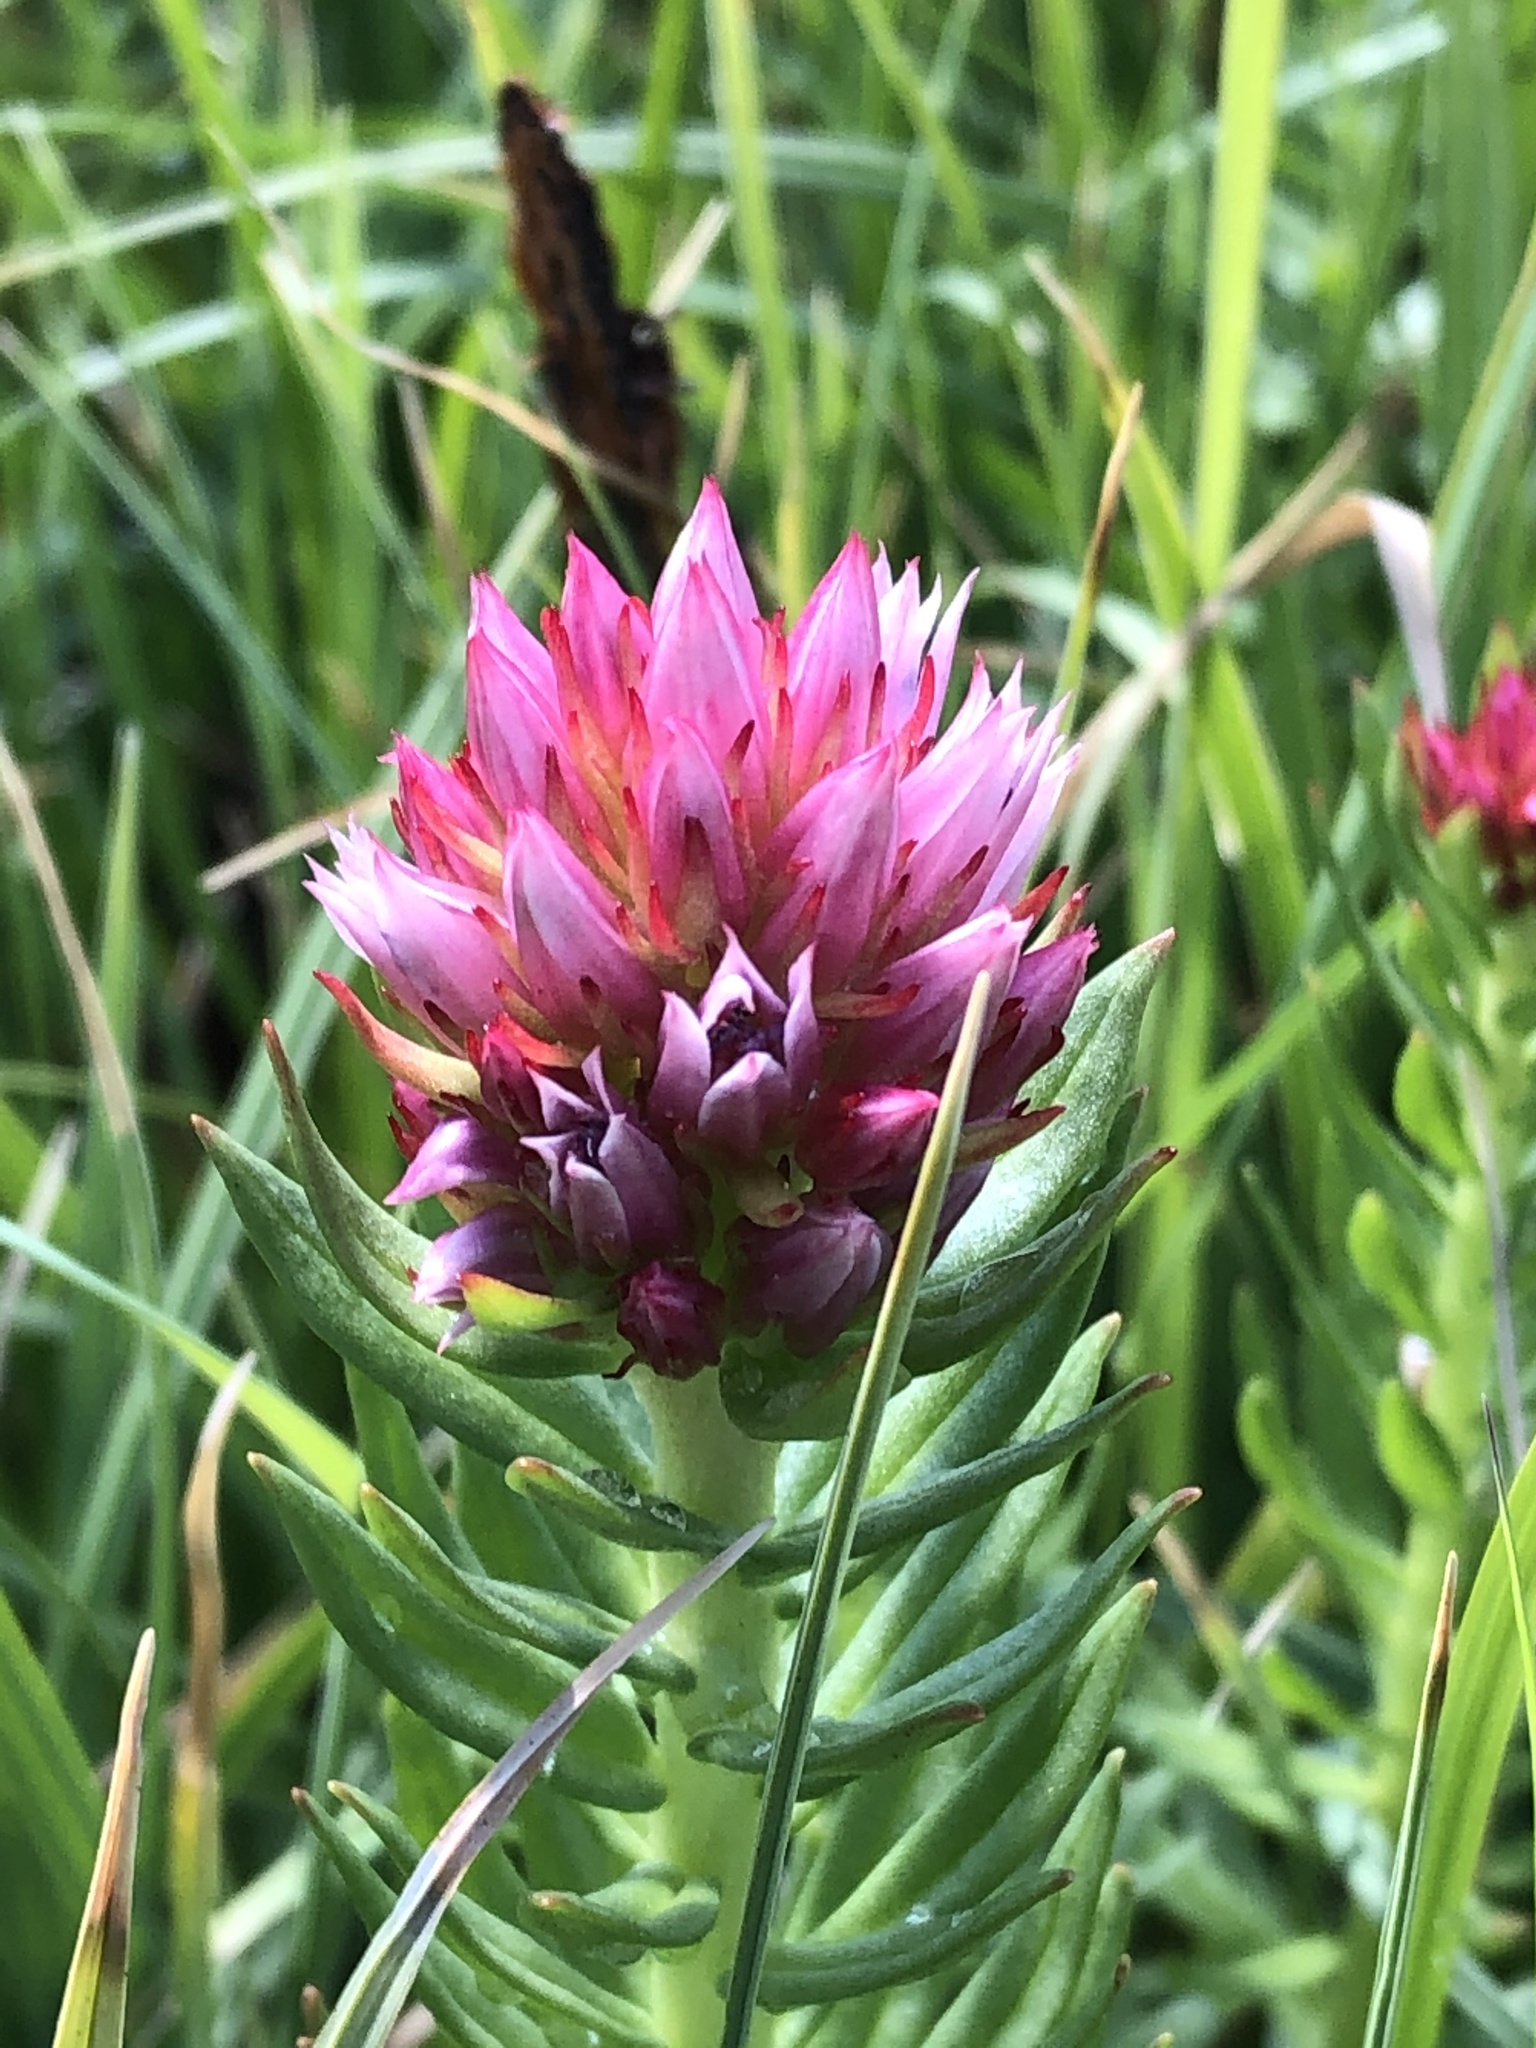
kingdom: Plantae
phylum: Tracheophyta
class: Magnoliopsida
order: Saxifragales
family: Crassulaceae
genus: Rhodiola
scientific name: Rhodiola rhodantha
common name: Red orpine
